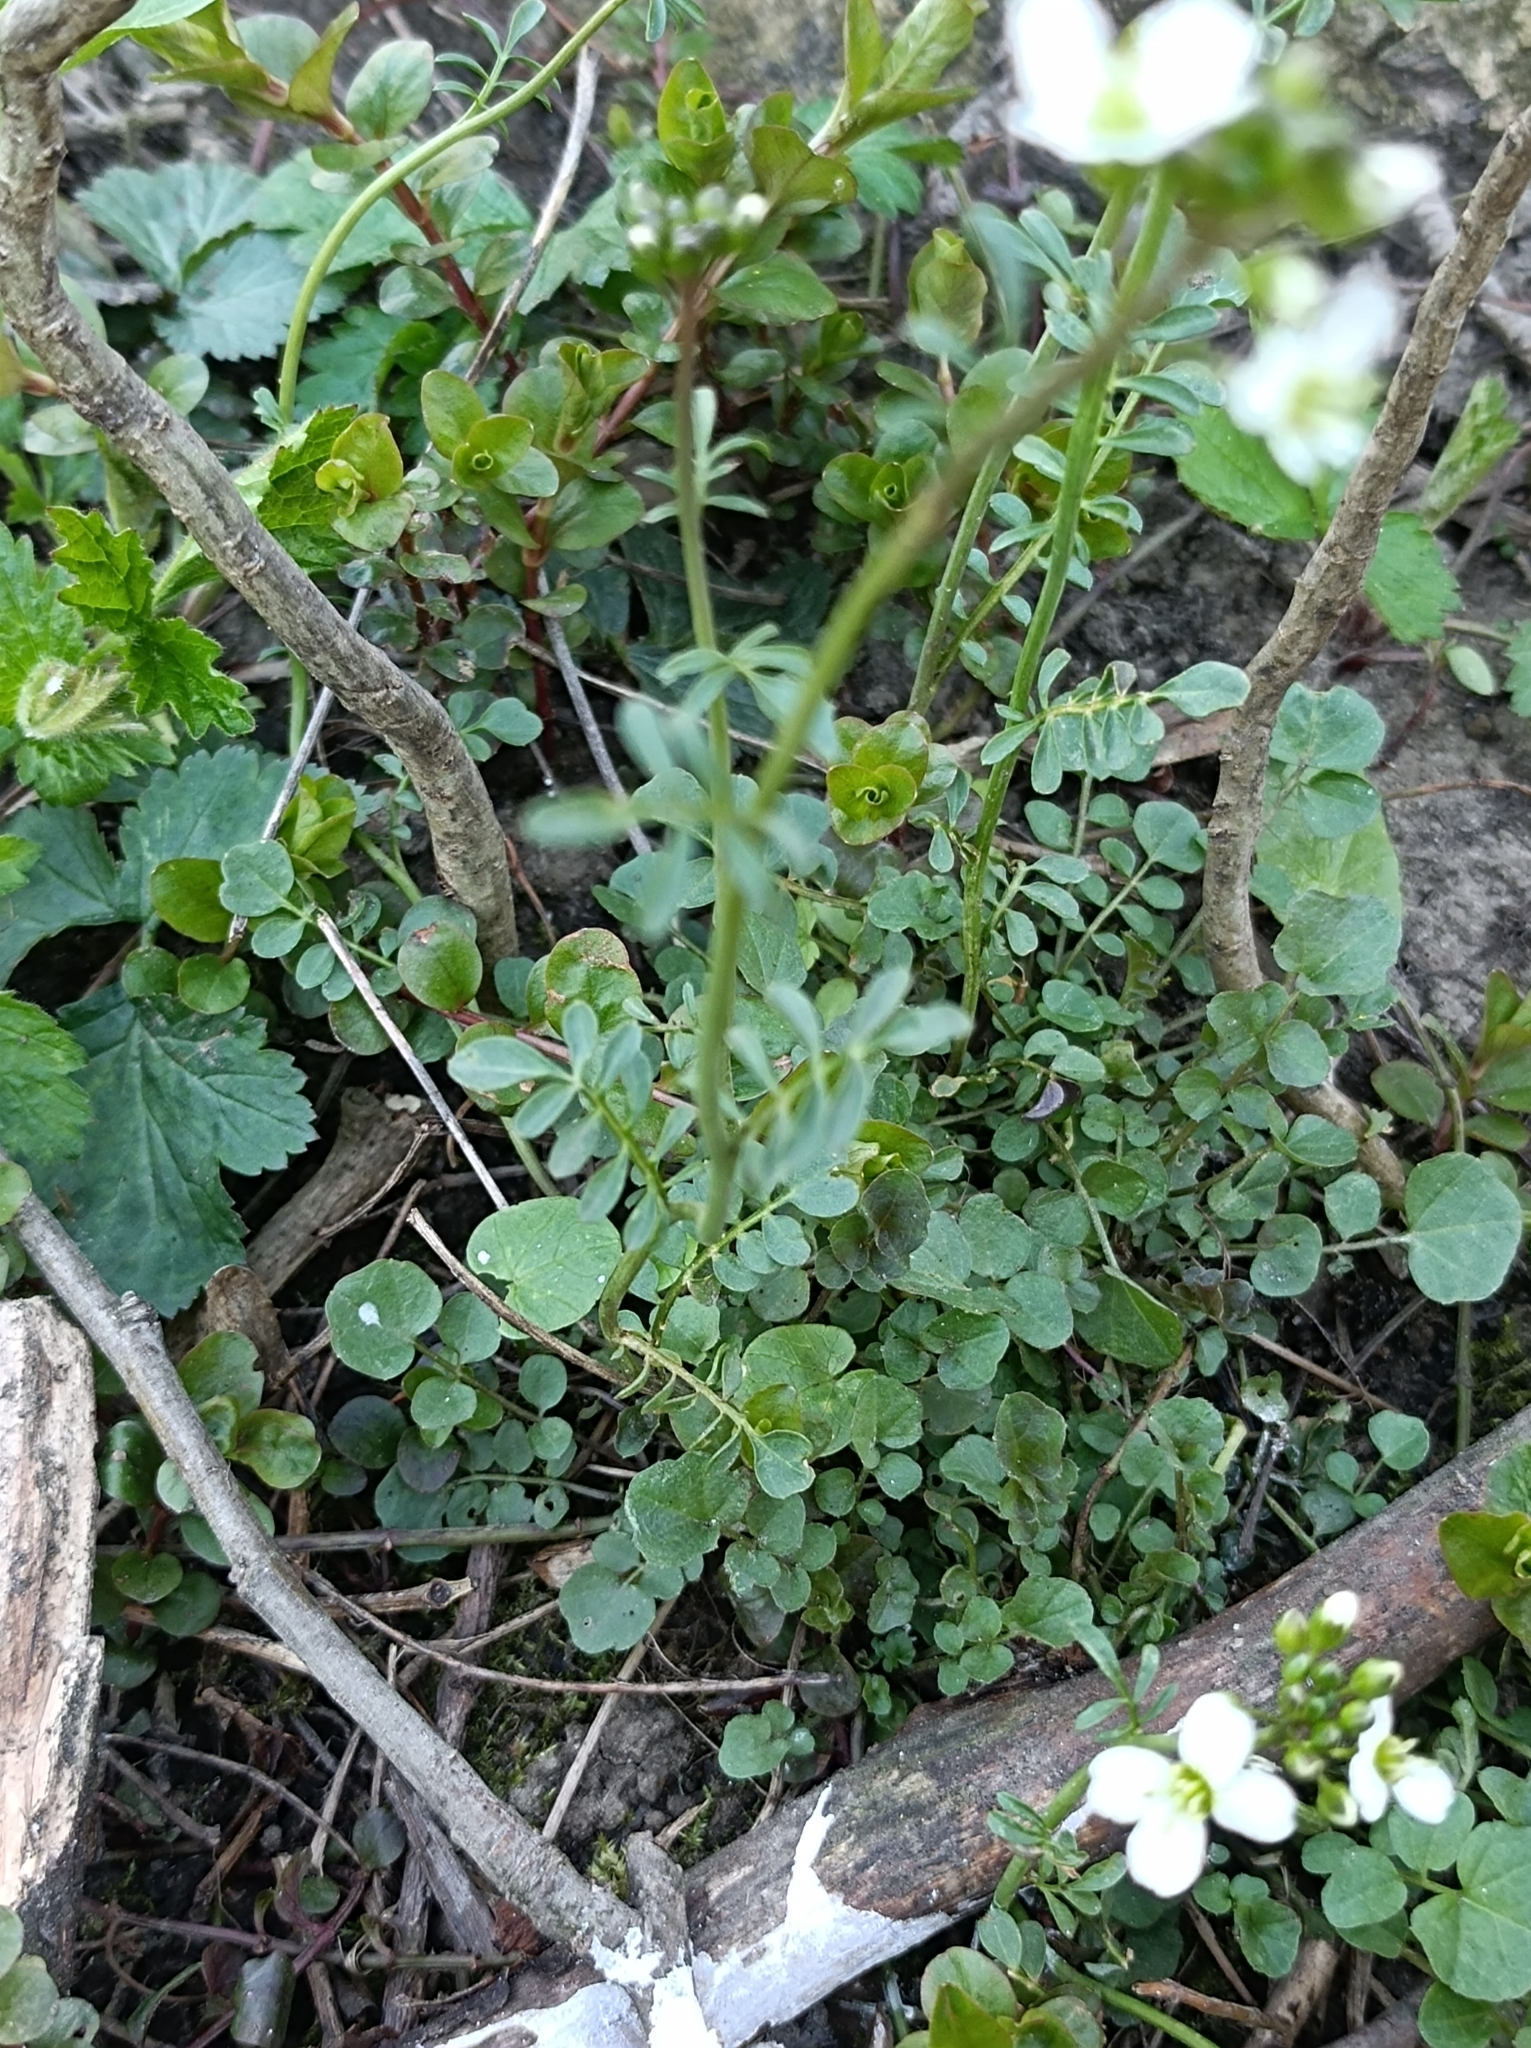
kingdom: Plantae
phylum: Tracheophyta
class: Magnoliopsida
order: Brassicales
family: Brassicaceae
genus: Cardamine
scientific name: Cardamine pratensis
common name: Cuckoo flower
